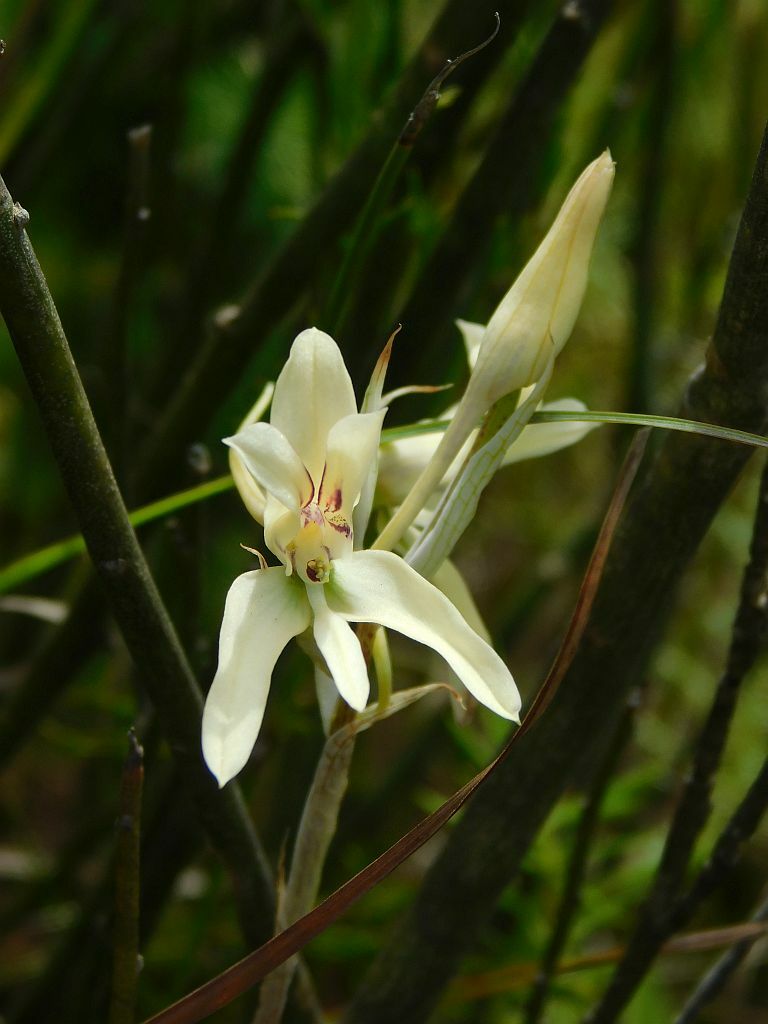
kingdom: Plantae
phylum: Tracheophyta
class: Liliopsida
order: Asparagales
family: Orchidaceae
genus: Disa
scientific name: Disa harveyana
